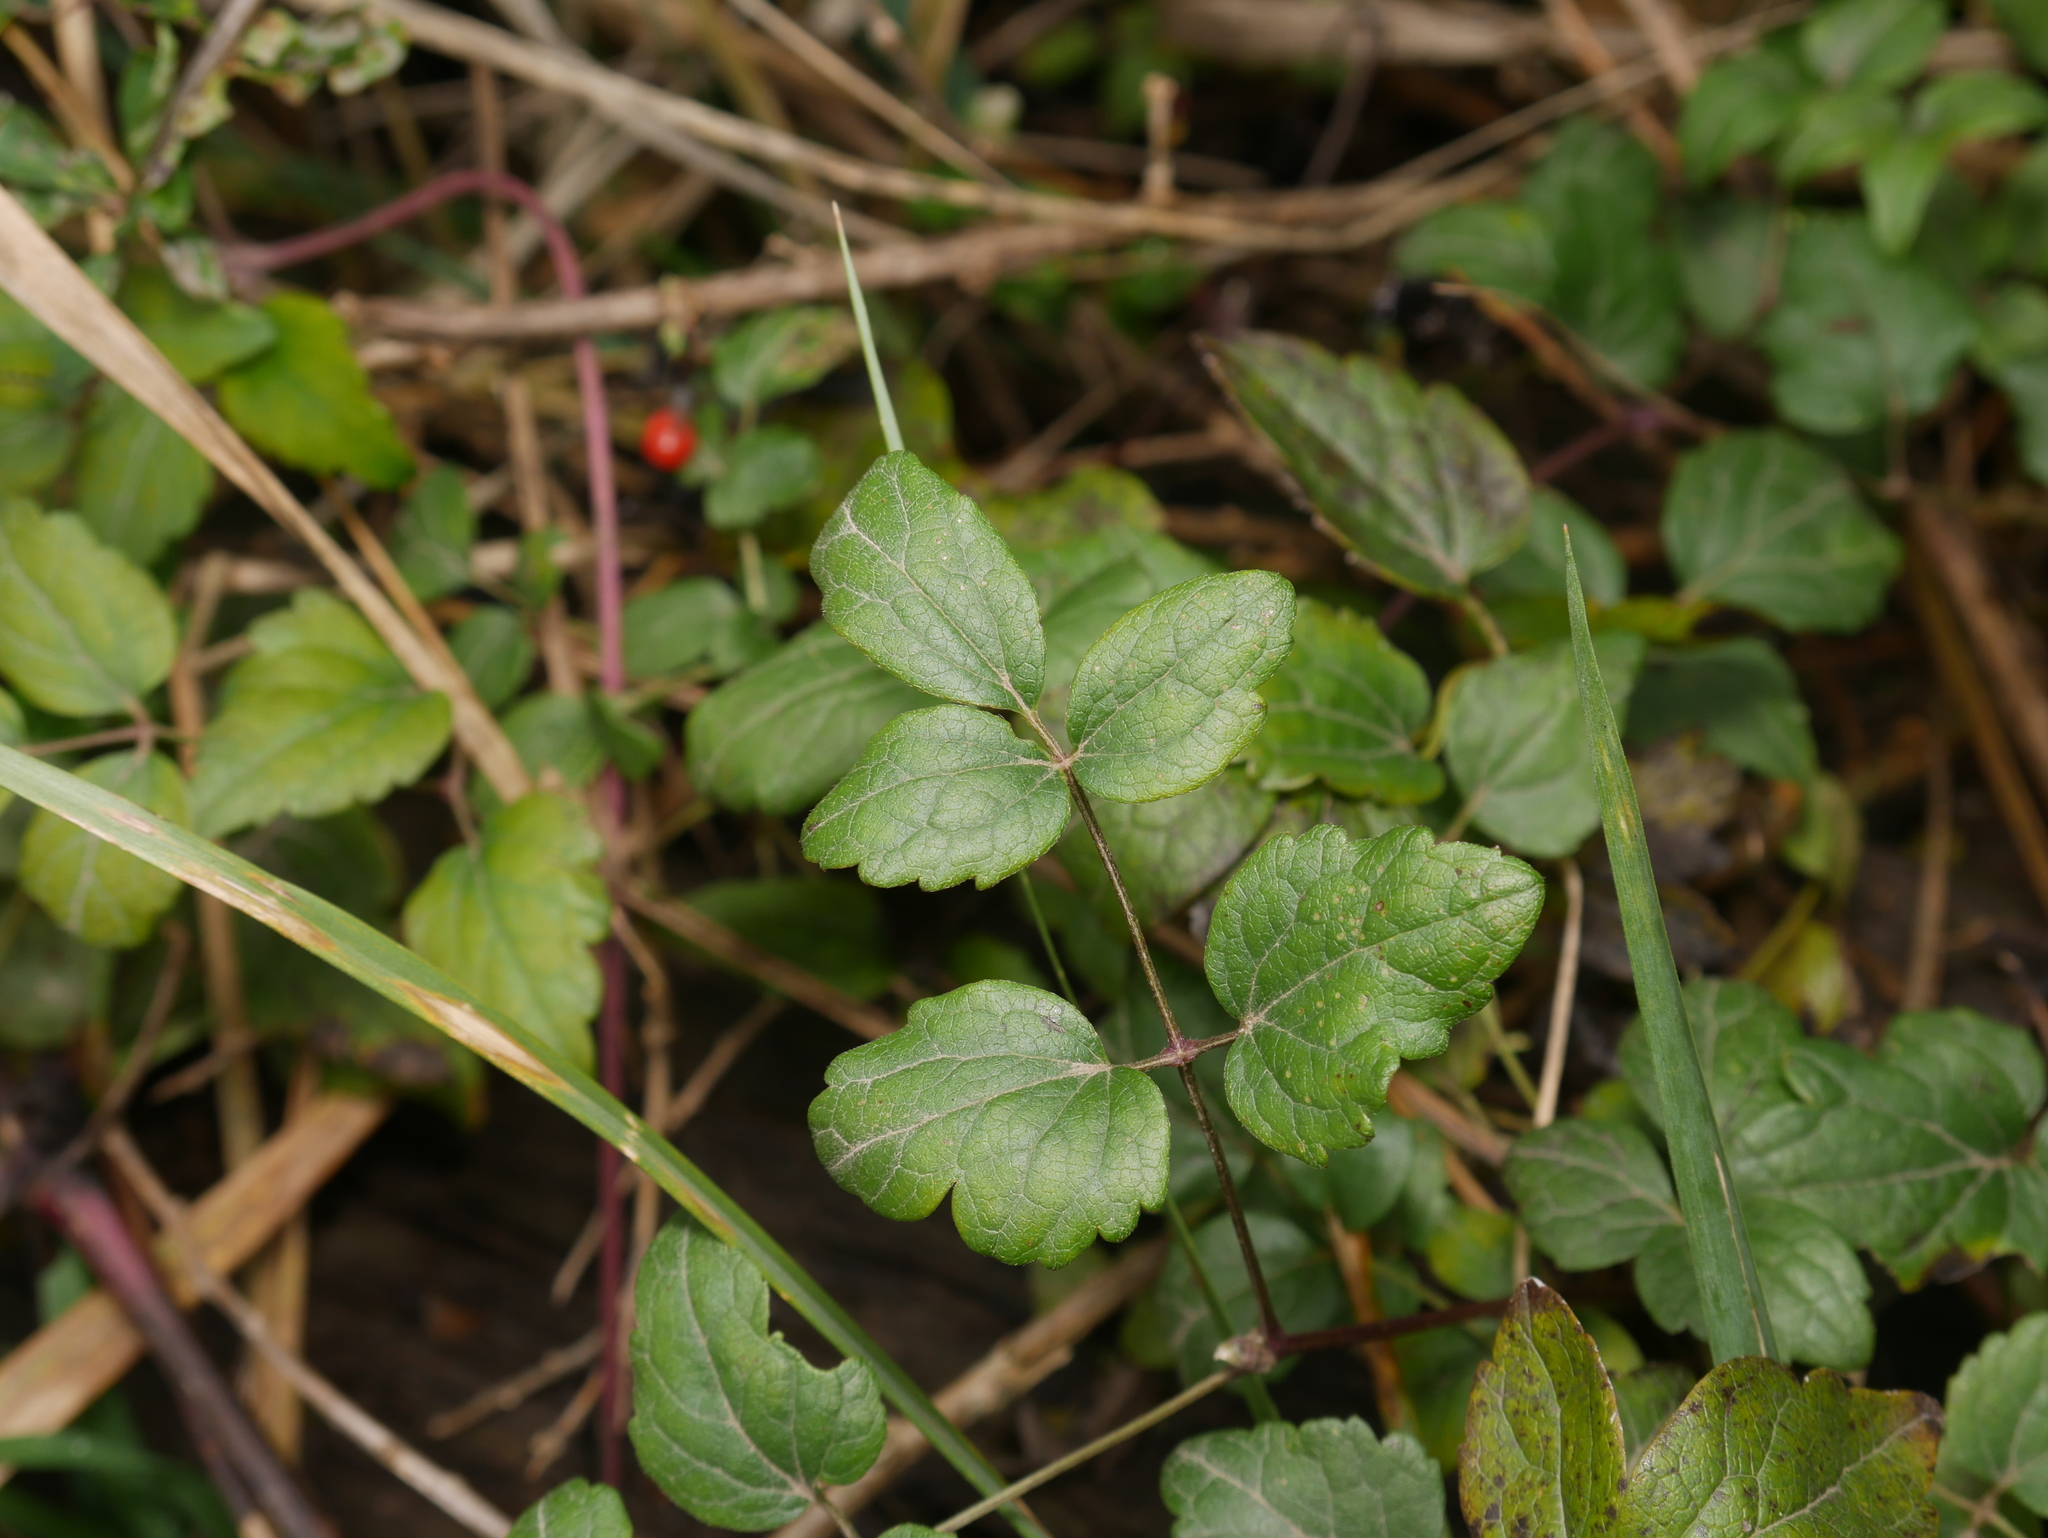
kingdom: Plantae
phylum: Tracheophyta
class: Magnoliopsida
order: Ranunculales
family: Ranunculaceae
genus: Clematis
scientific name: Clematis vitalba
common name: Evergreen clematis
